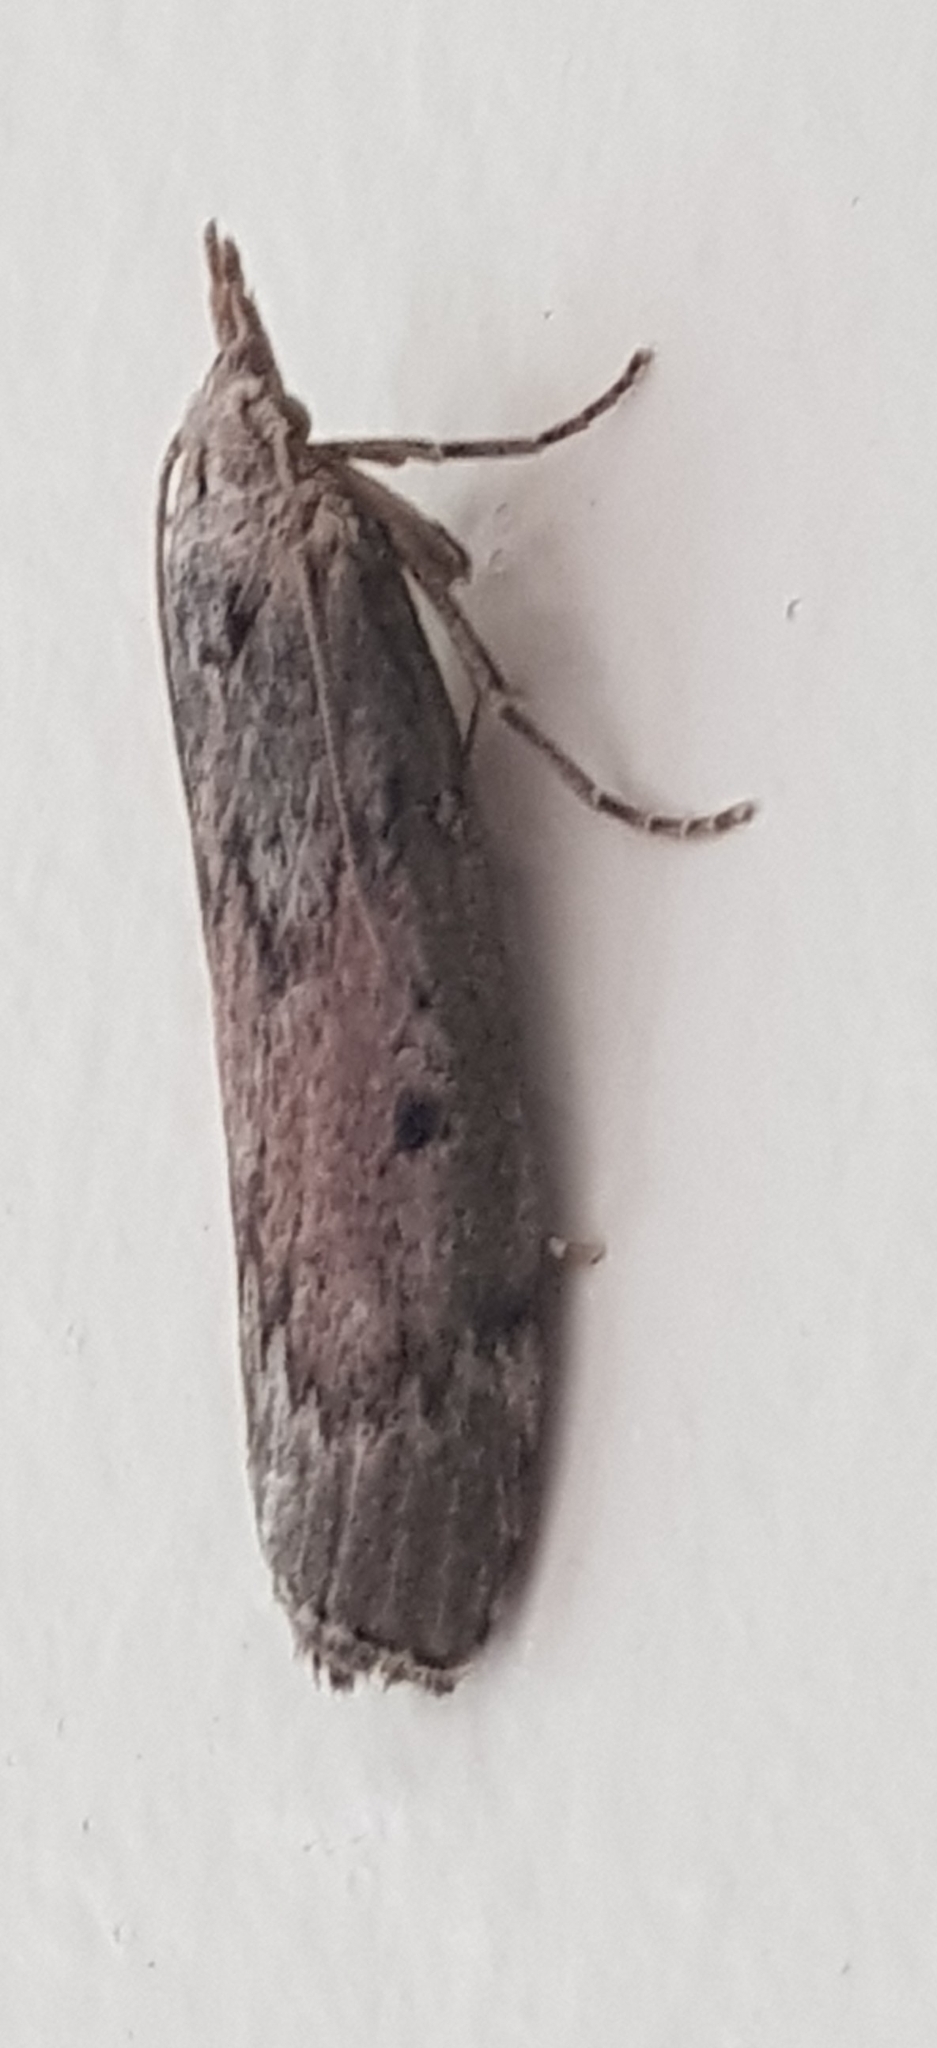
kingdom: Animalia
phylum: Arthropoda
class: Insecta
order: Lepidoptera
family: Pyralidae
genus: Aphomia
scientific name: Aphomia sociella
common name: Bee moth
